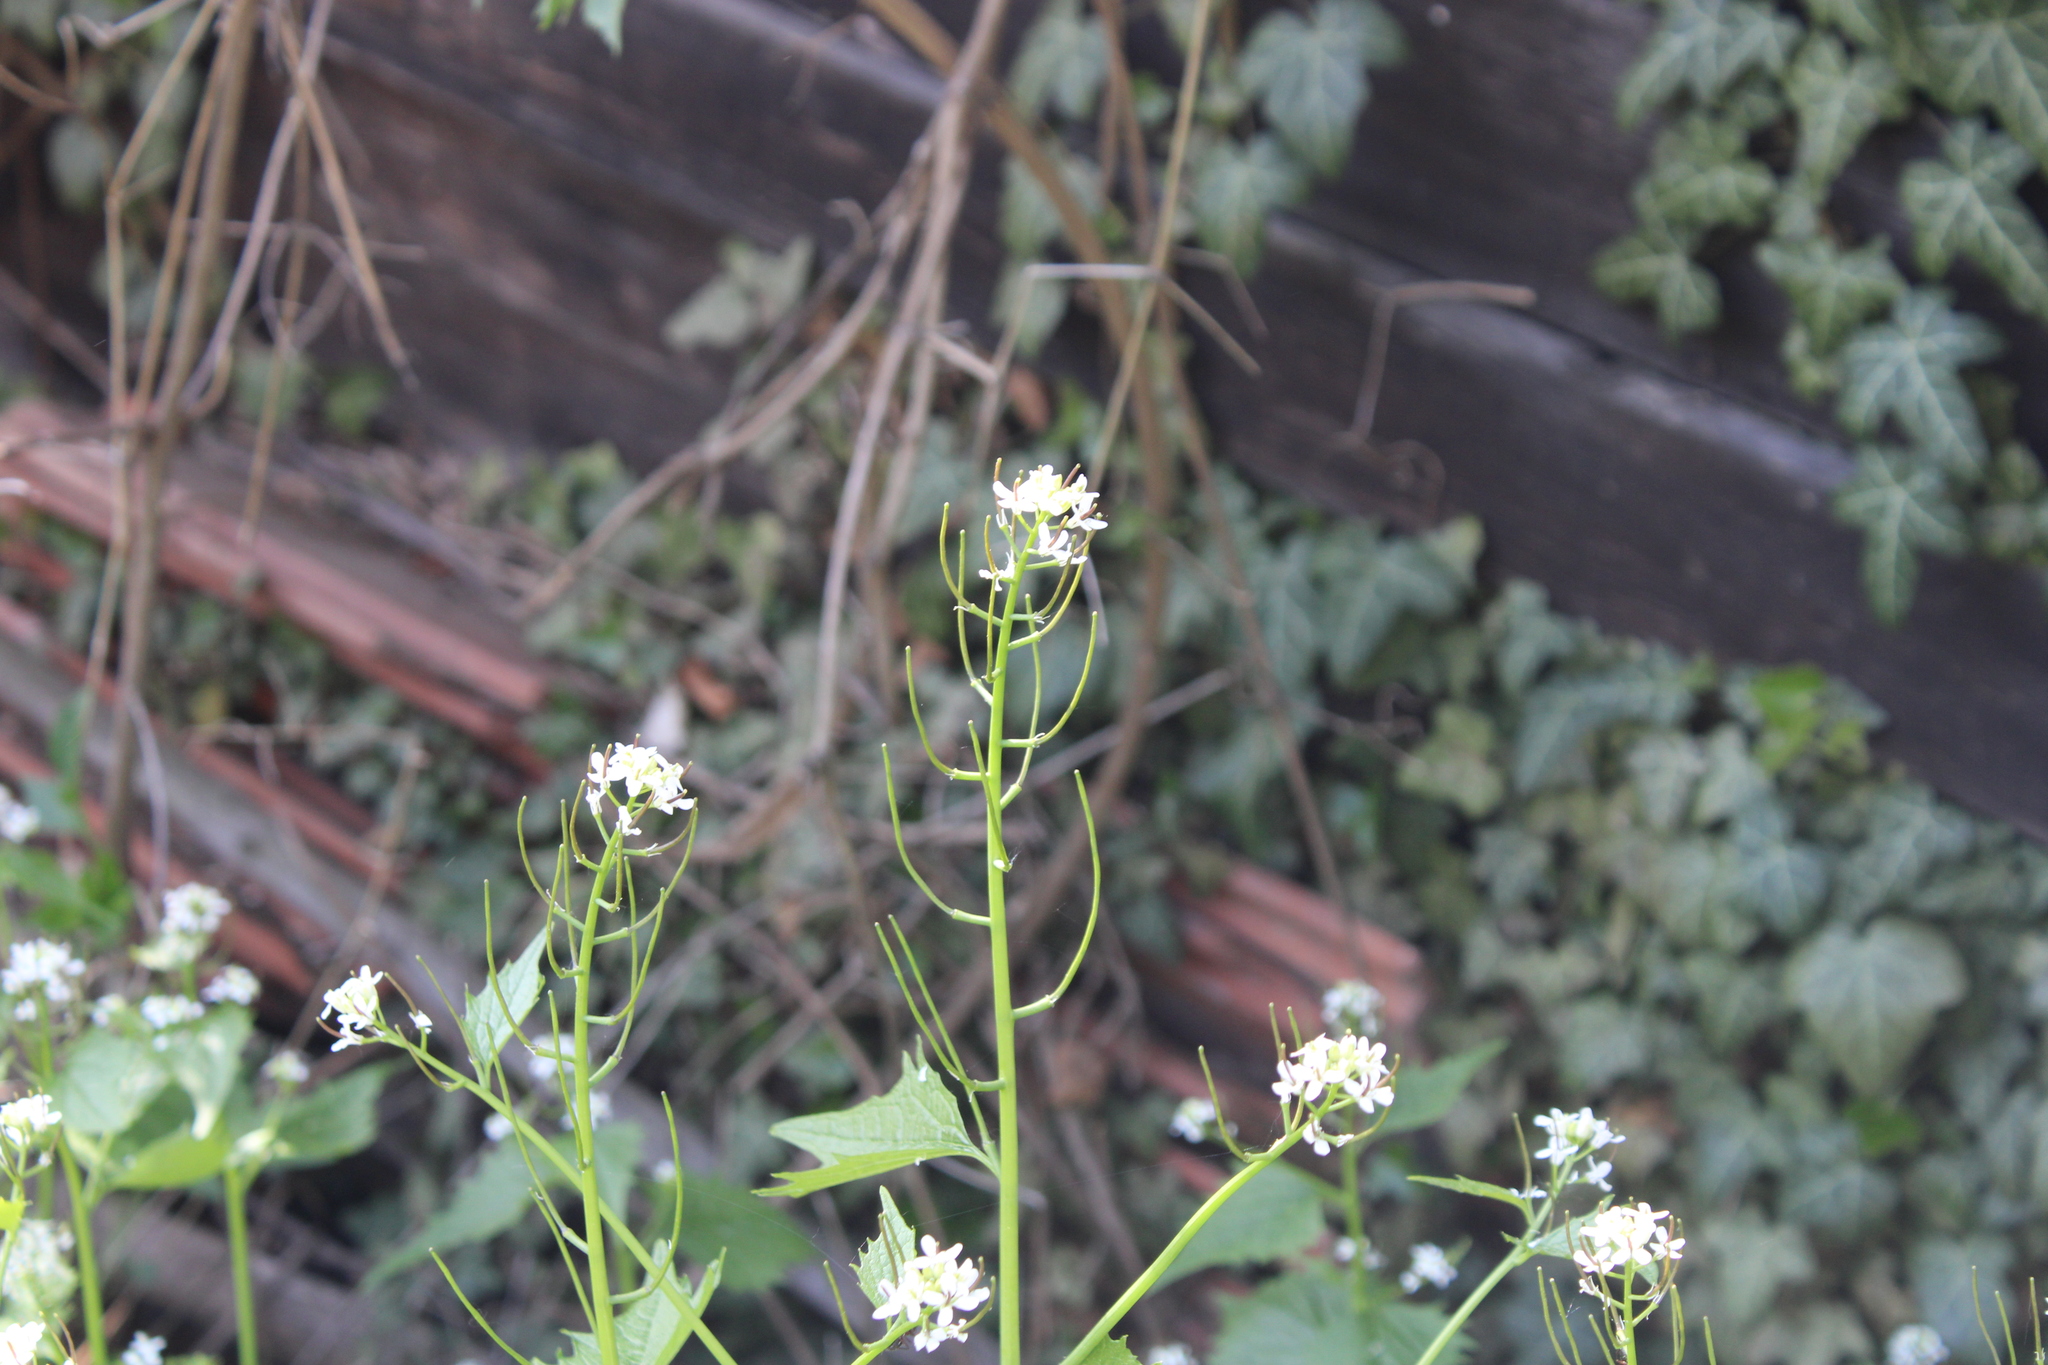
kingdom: Plantae
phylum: Tracheophyta
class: Magnoliopsida
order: Brassicales
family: Brassicaceae
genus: Alliaria
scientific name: Alliaria petiolata
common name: Garlic mustard
